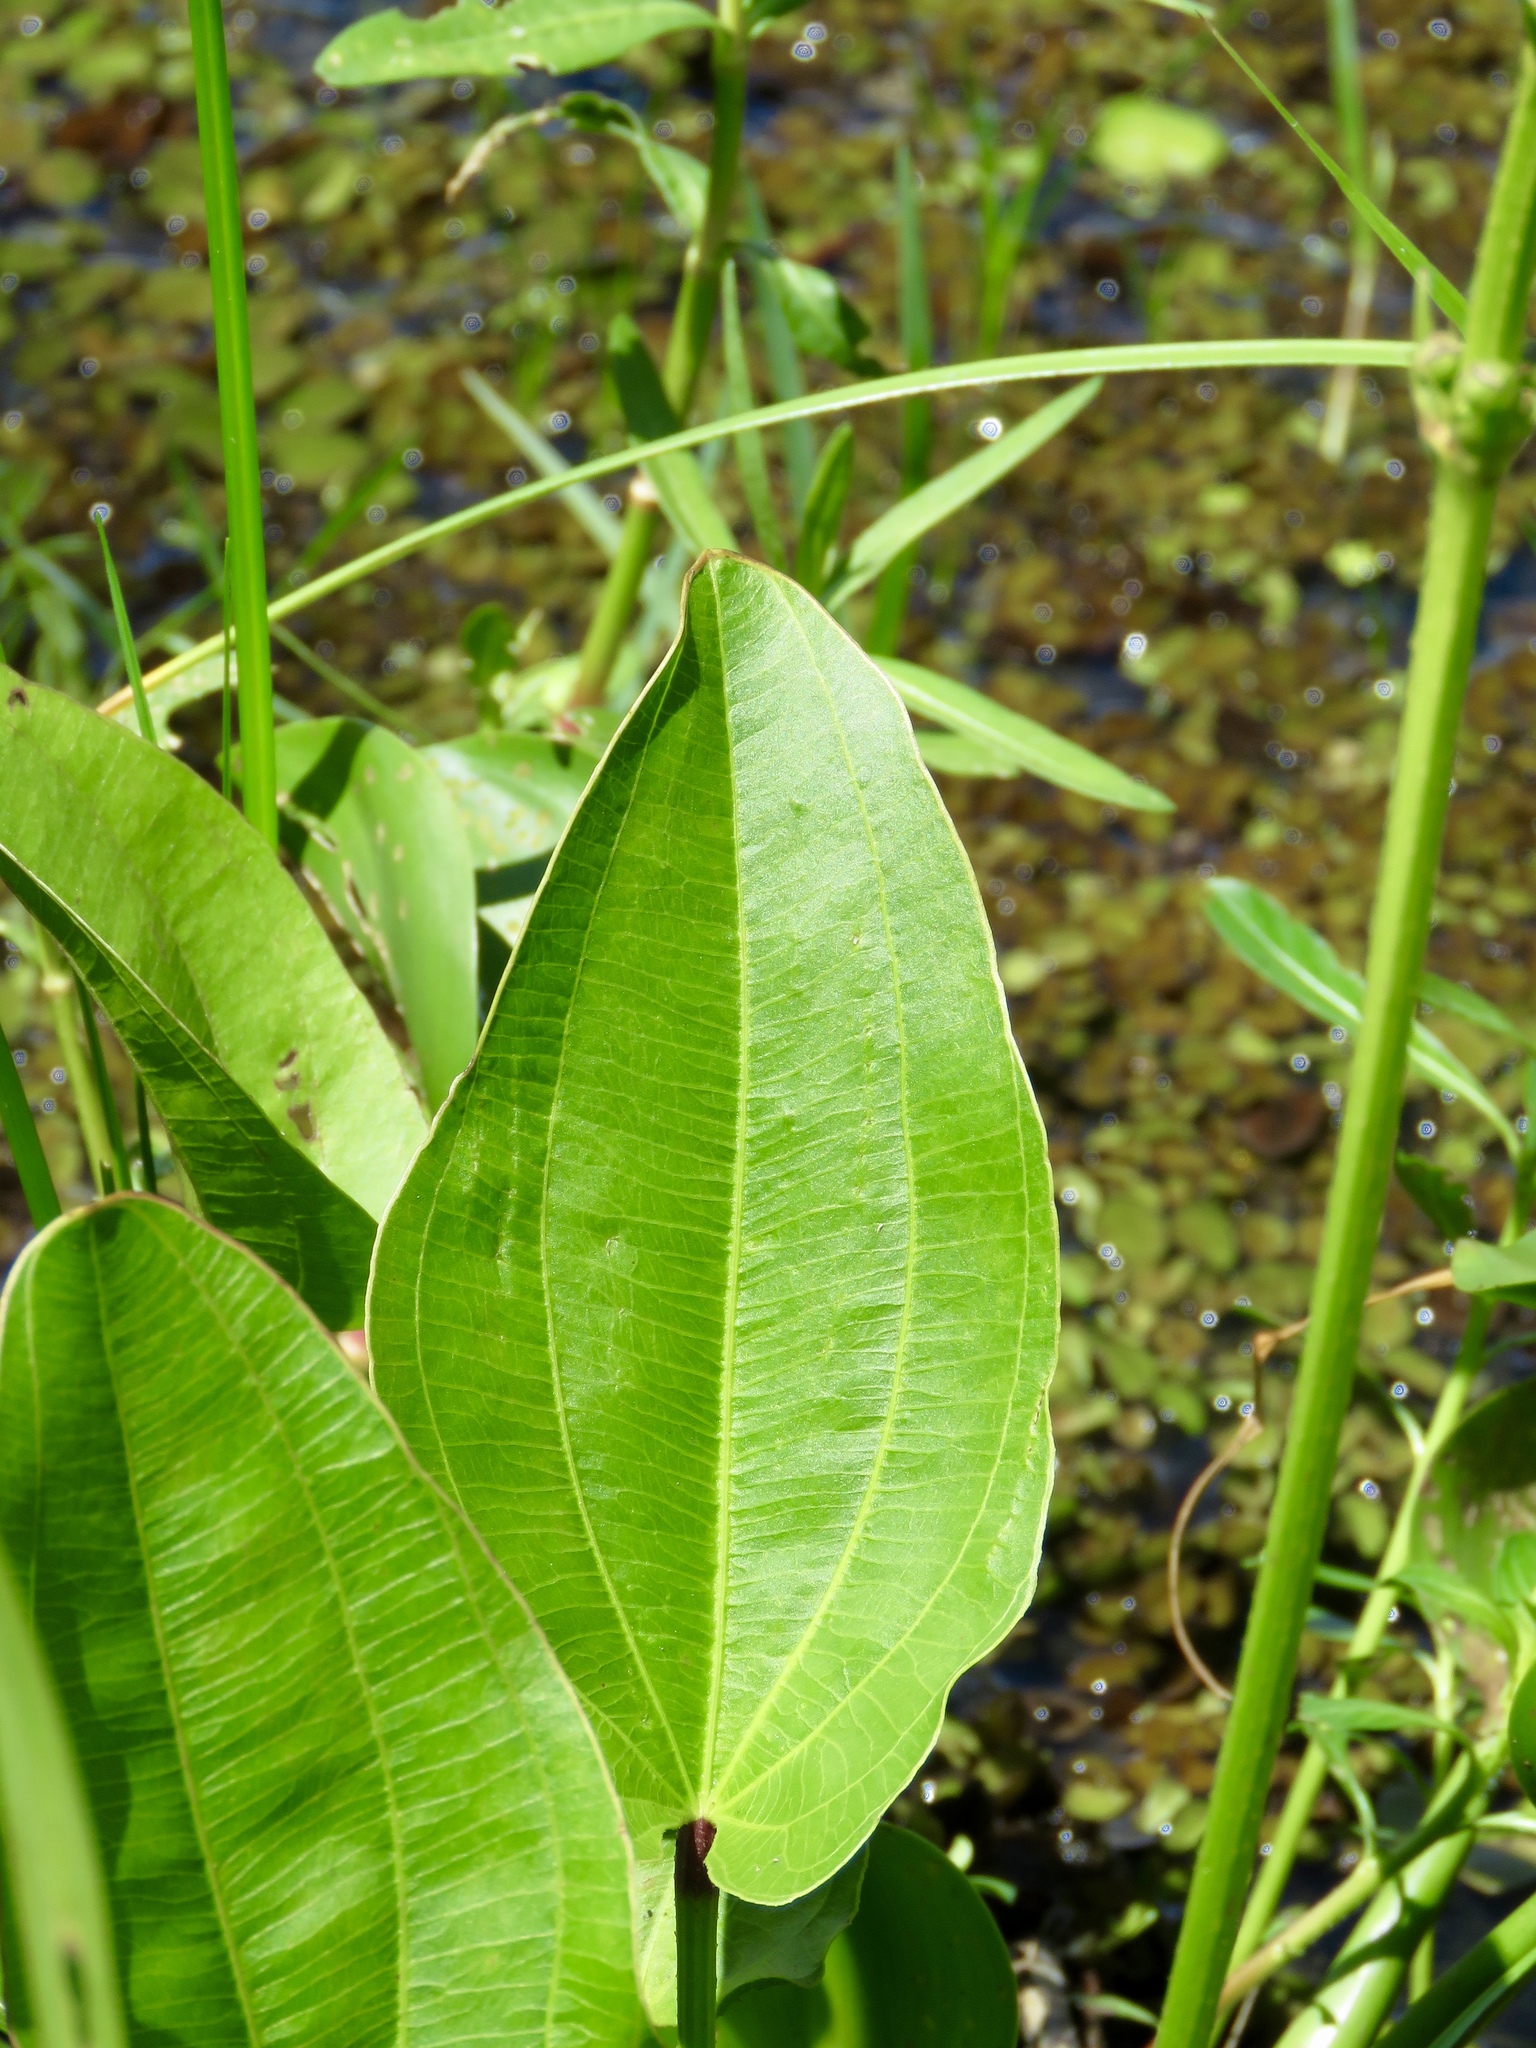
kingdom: Plantae
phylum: Tracheophyta
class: Liliopsida
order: Alismatales
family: Alismataceae
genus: Aquarius
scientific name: Aquarius cordifolius
